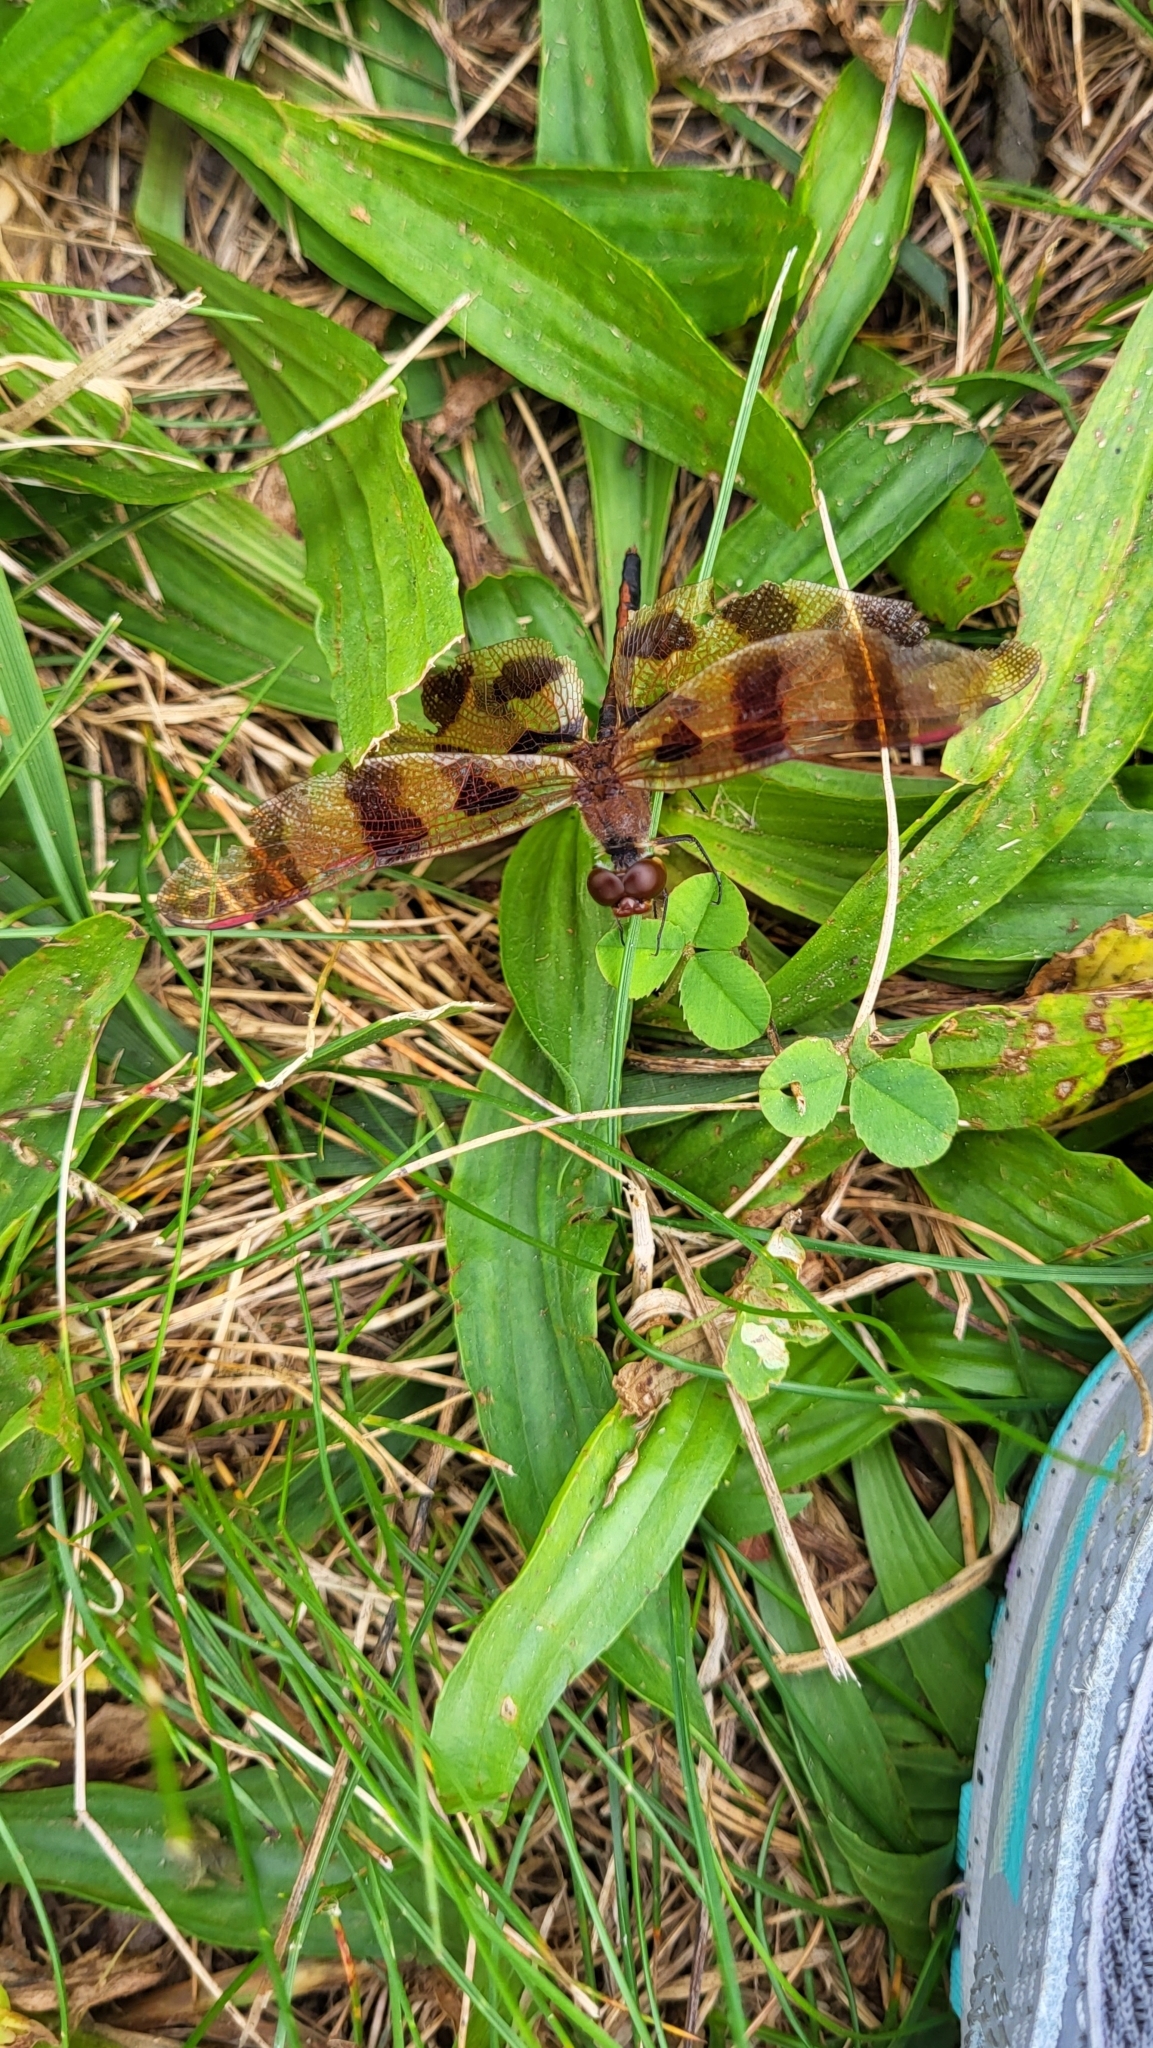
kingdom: Animalia
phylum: Arthropoda
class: Insecta
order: Odonata
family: Libellulidae
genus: Celithemis
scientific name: Celithemis eponina
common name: Halloween pennant
